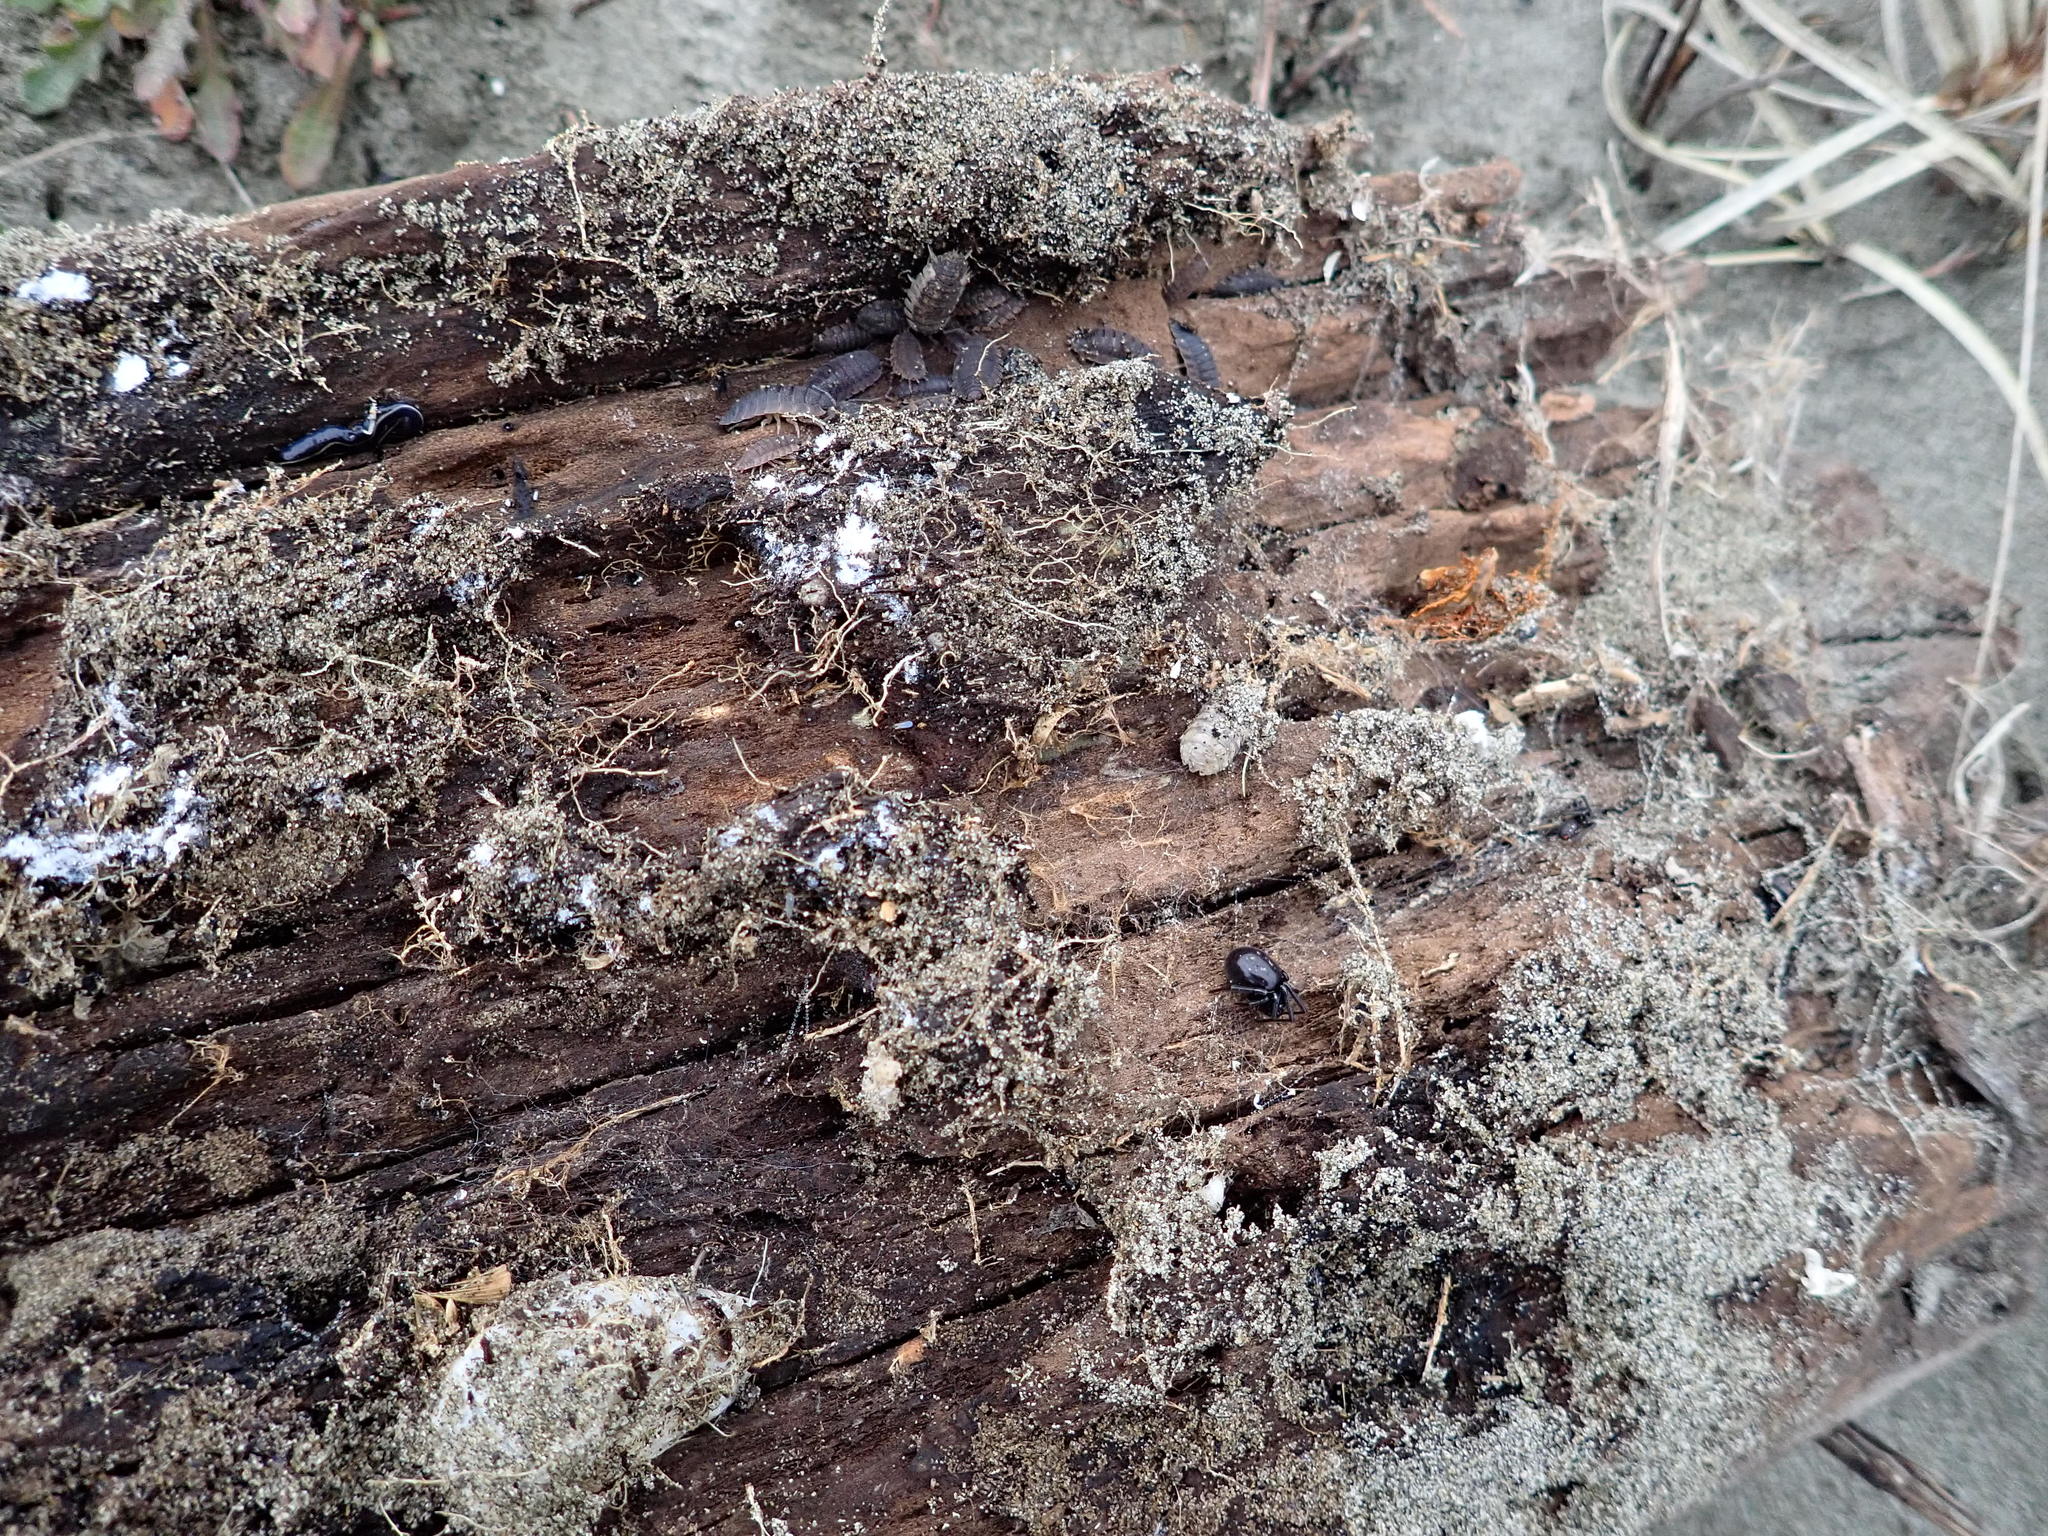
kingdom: Animalia
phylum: Arthropoda
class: Arachnida
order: Araneae
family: Theridiidae
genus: Steatoda
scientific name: Steatoda capensis
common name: Cobweb weaver
